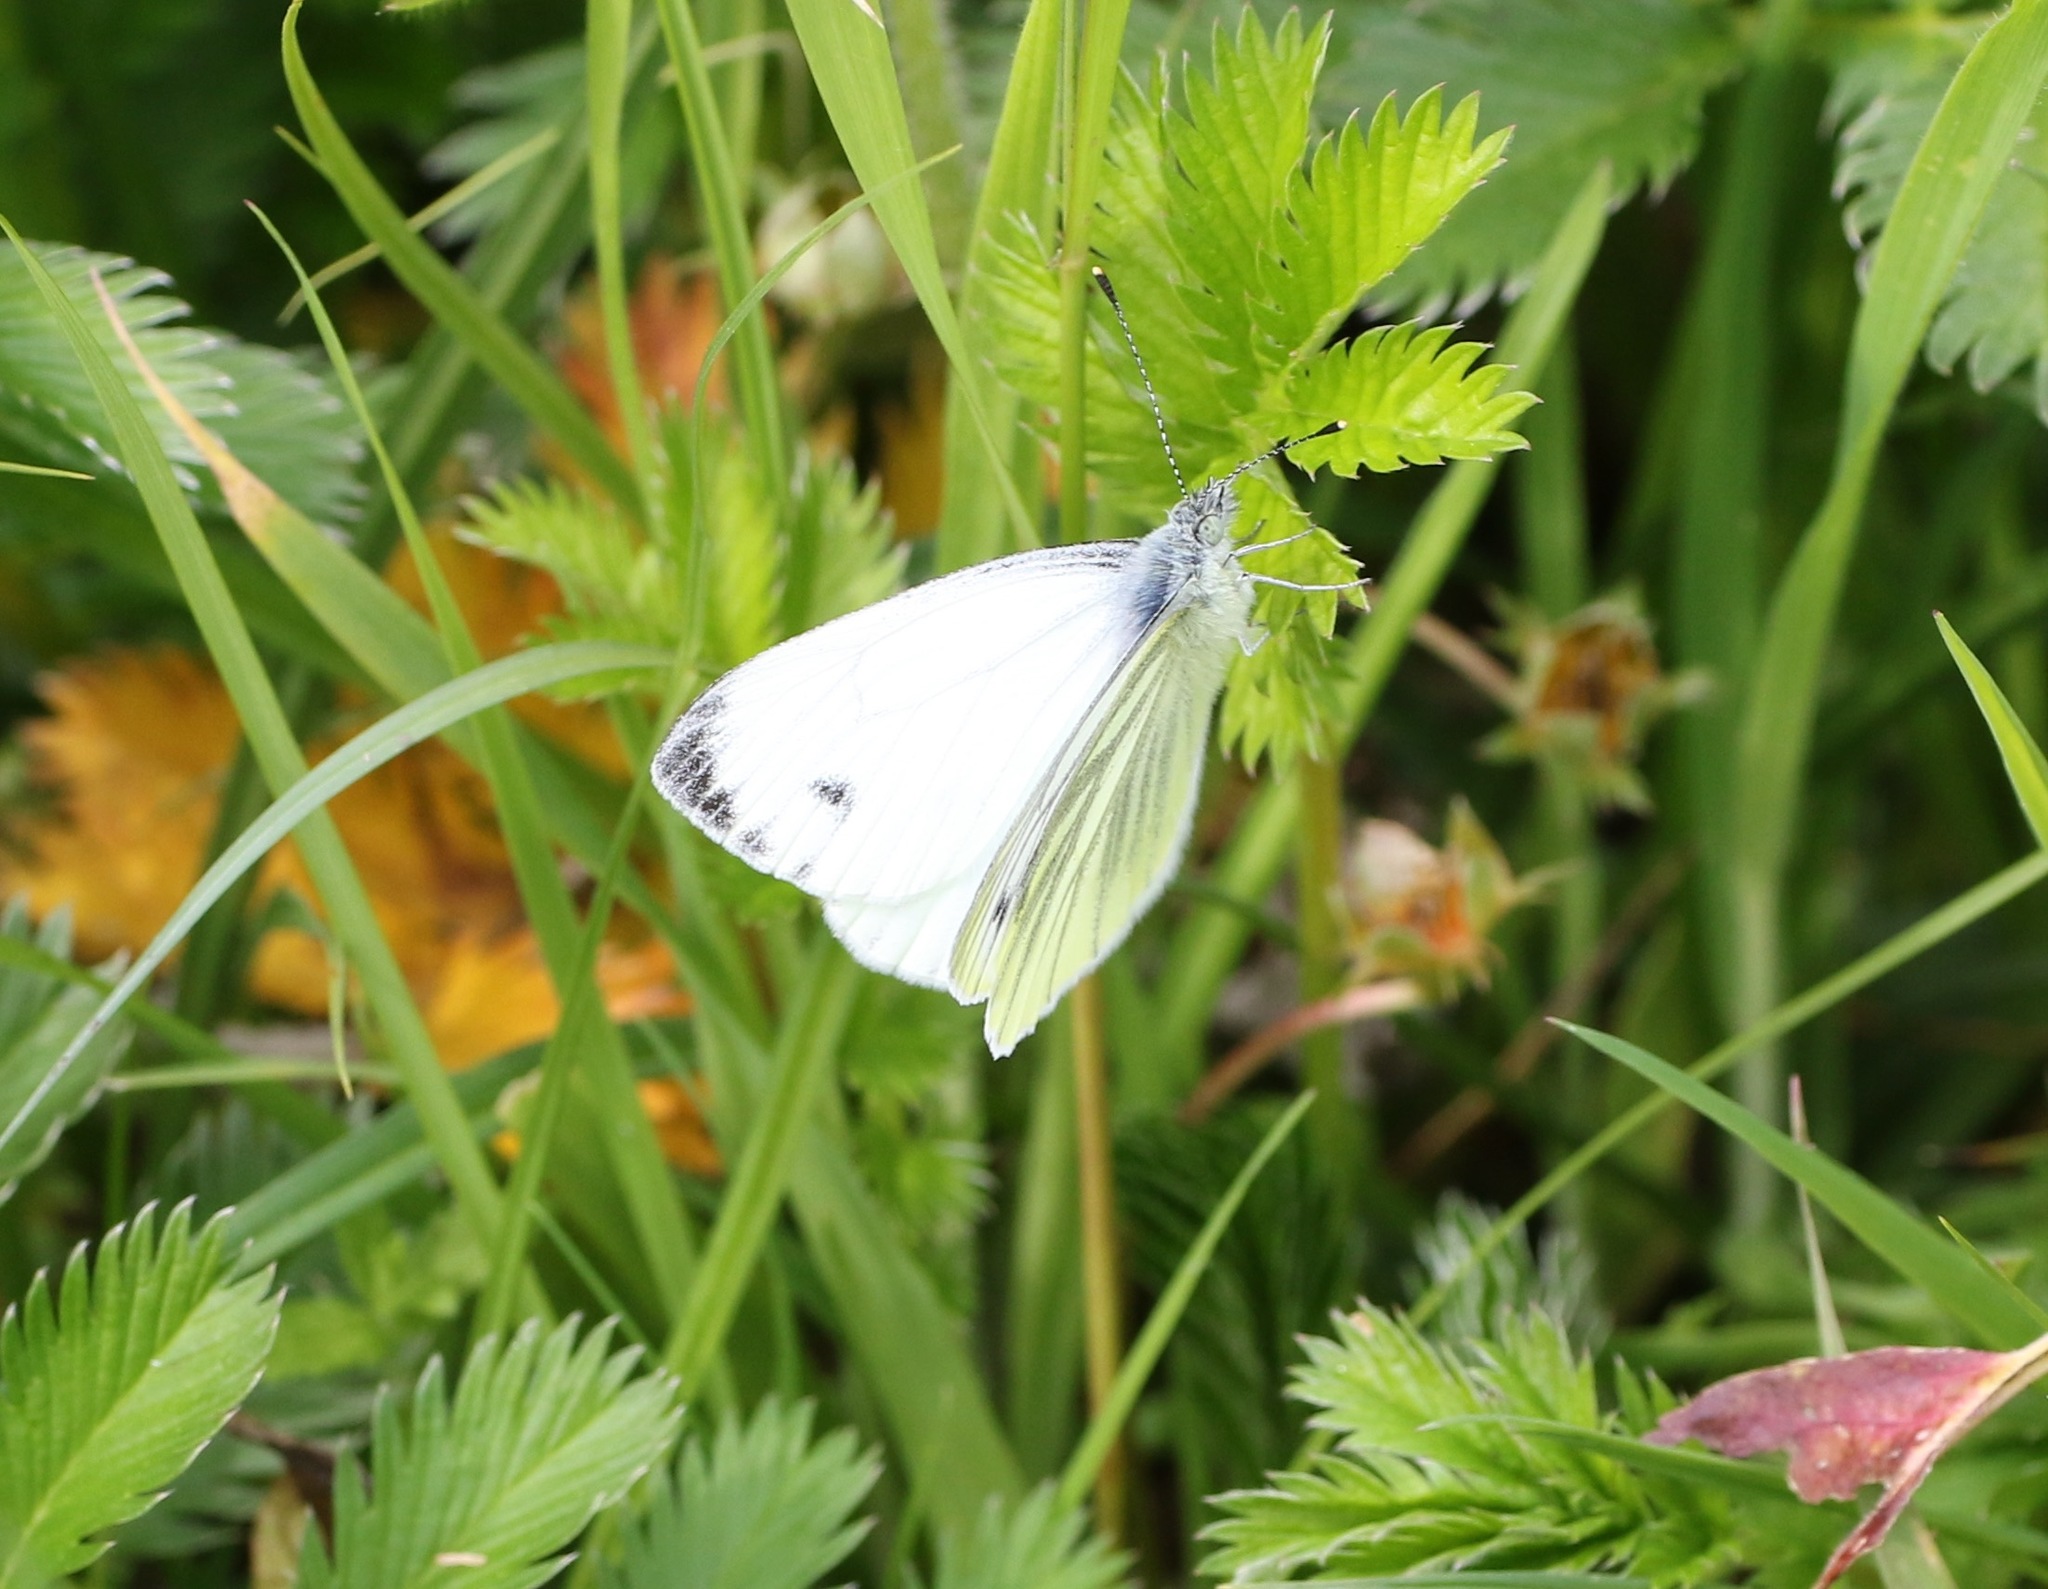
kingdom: Animalia
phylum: Arthropoda
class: Insecta
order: Lepidoptera
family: Pieridae
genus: Pieris
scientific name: Pieris napi
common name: Green-veined white
